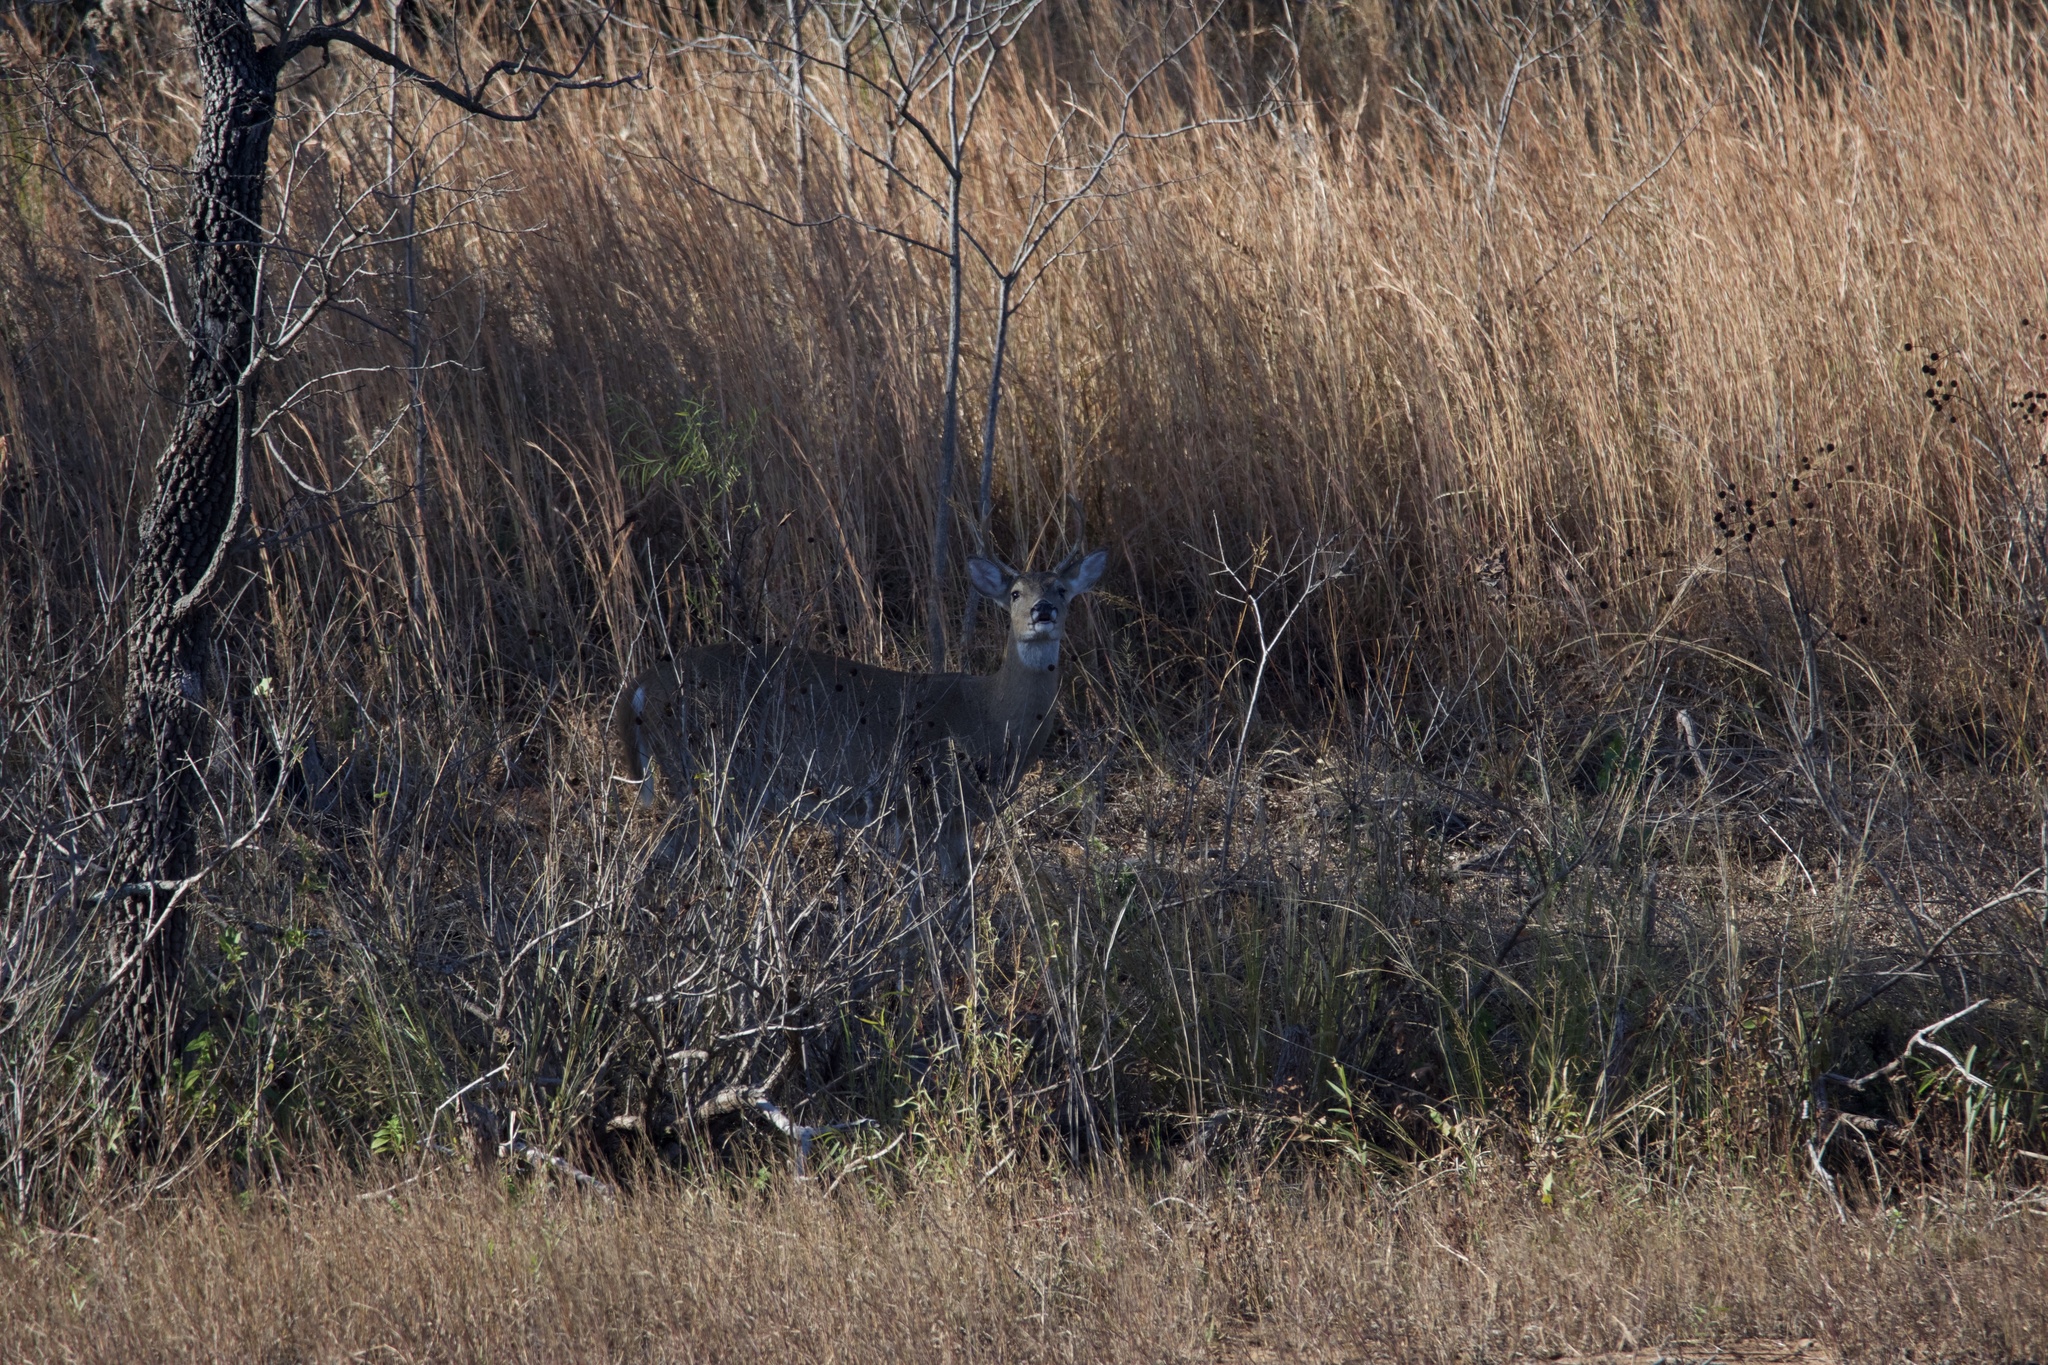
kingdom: Animalia
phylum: Chordata
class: Mammalia
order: Artiodactyla
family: Cervidae
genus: Odocoileus
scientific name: Odocoileus virginianus
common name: White-tailed deer
